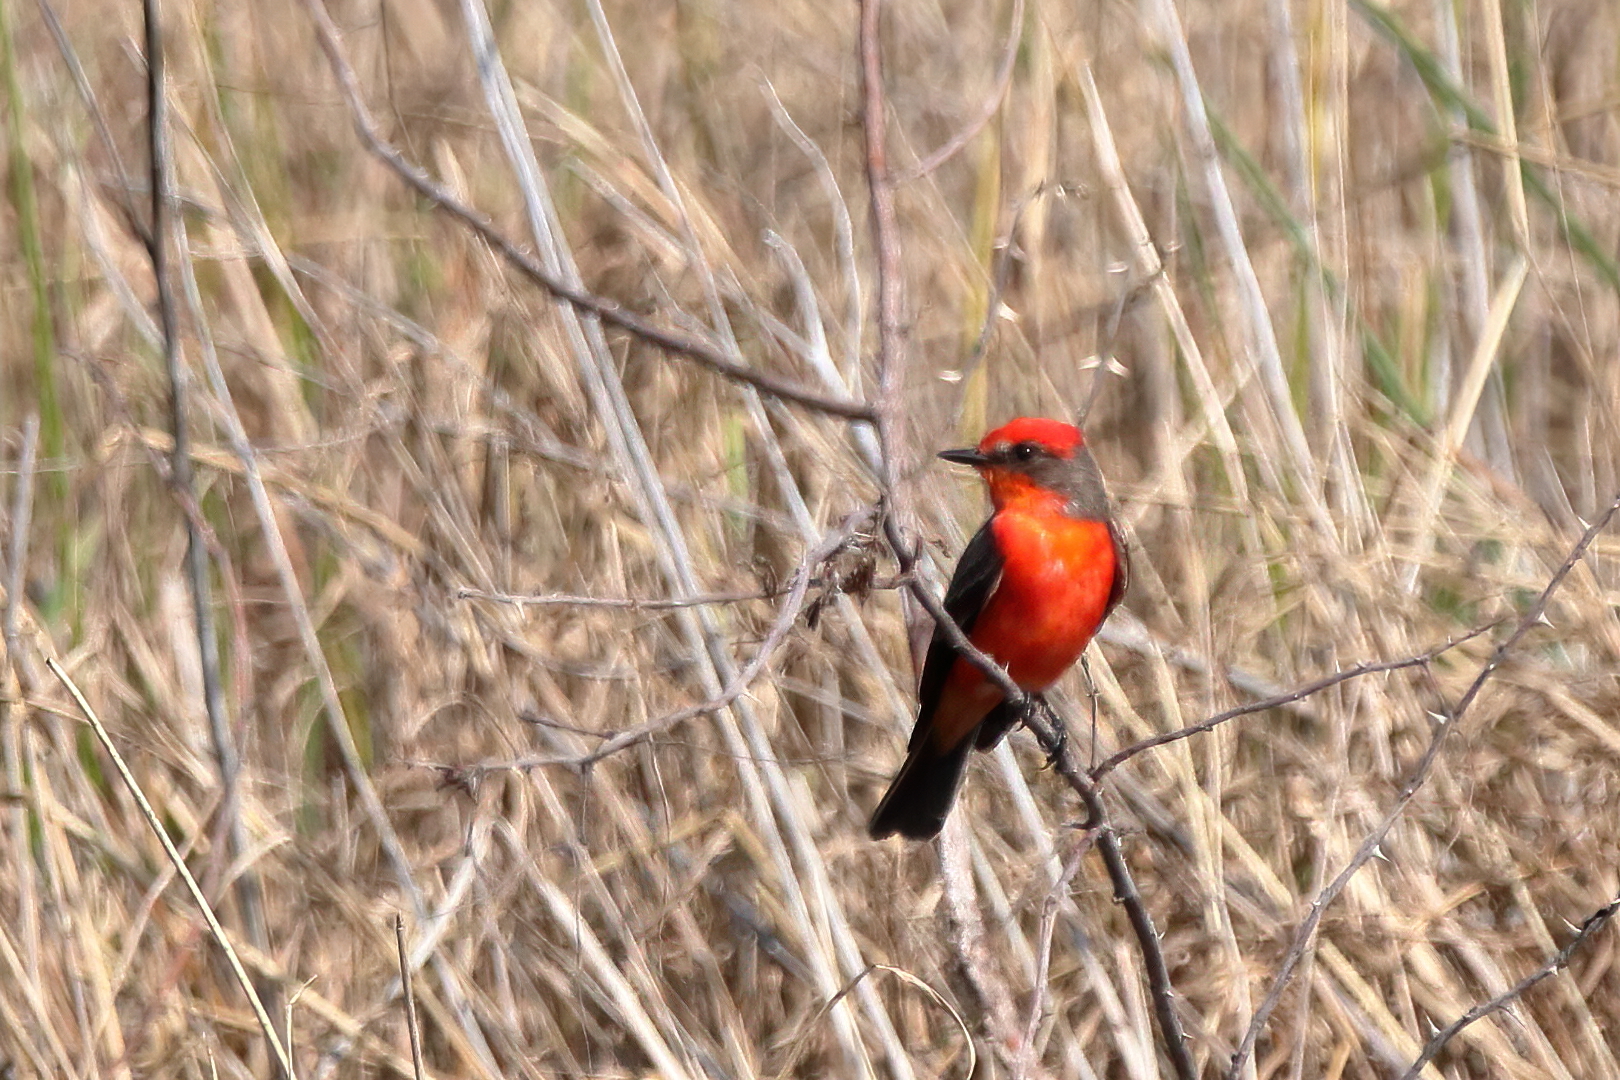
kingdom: Animalia
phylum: Chordata
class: Aves
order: Passeriformes
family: Tyrannidae
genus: Pyrocephalus
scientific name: Pyrocephalus rubinus
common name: Vermilion flycatcher
